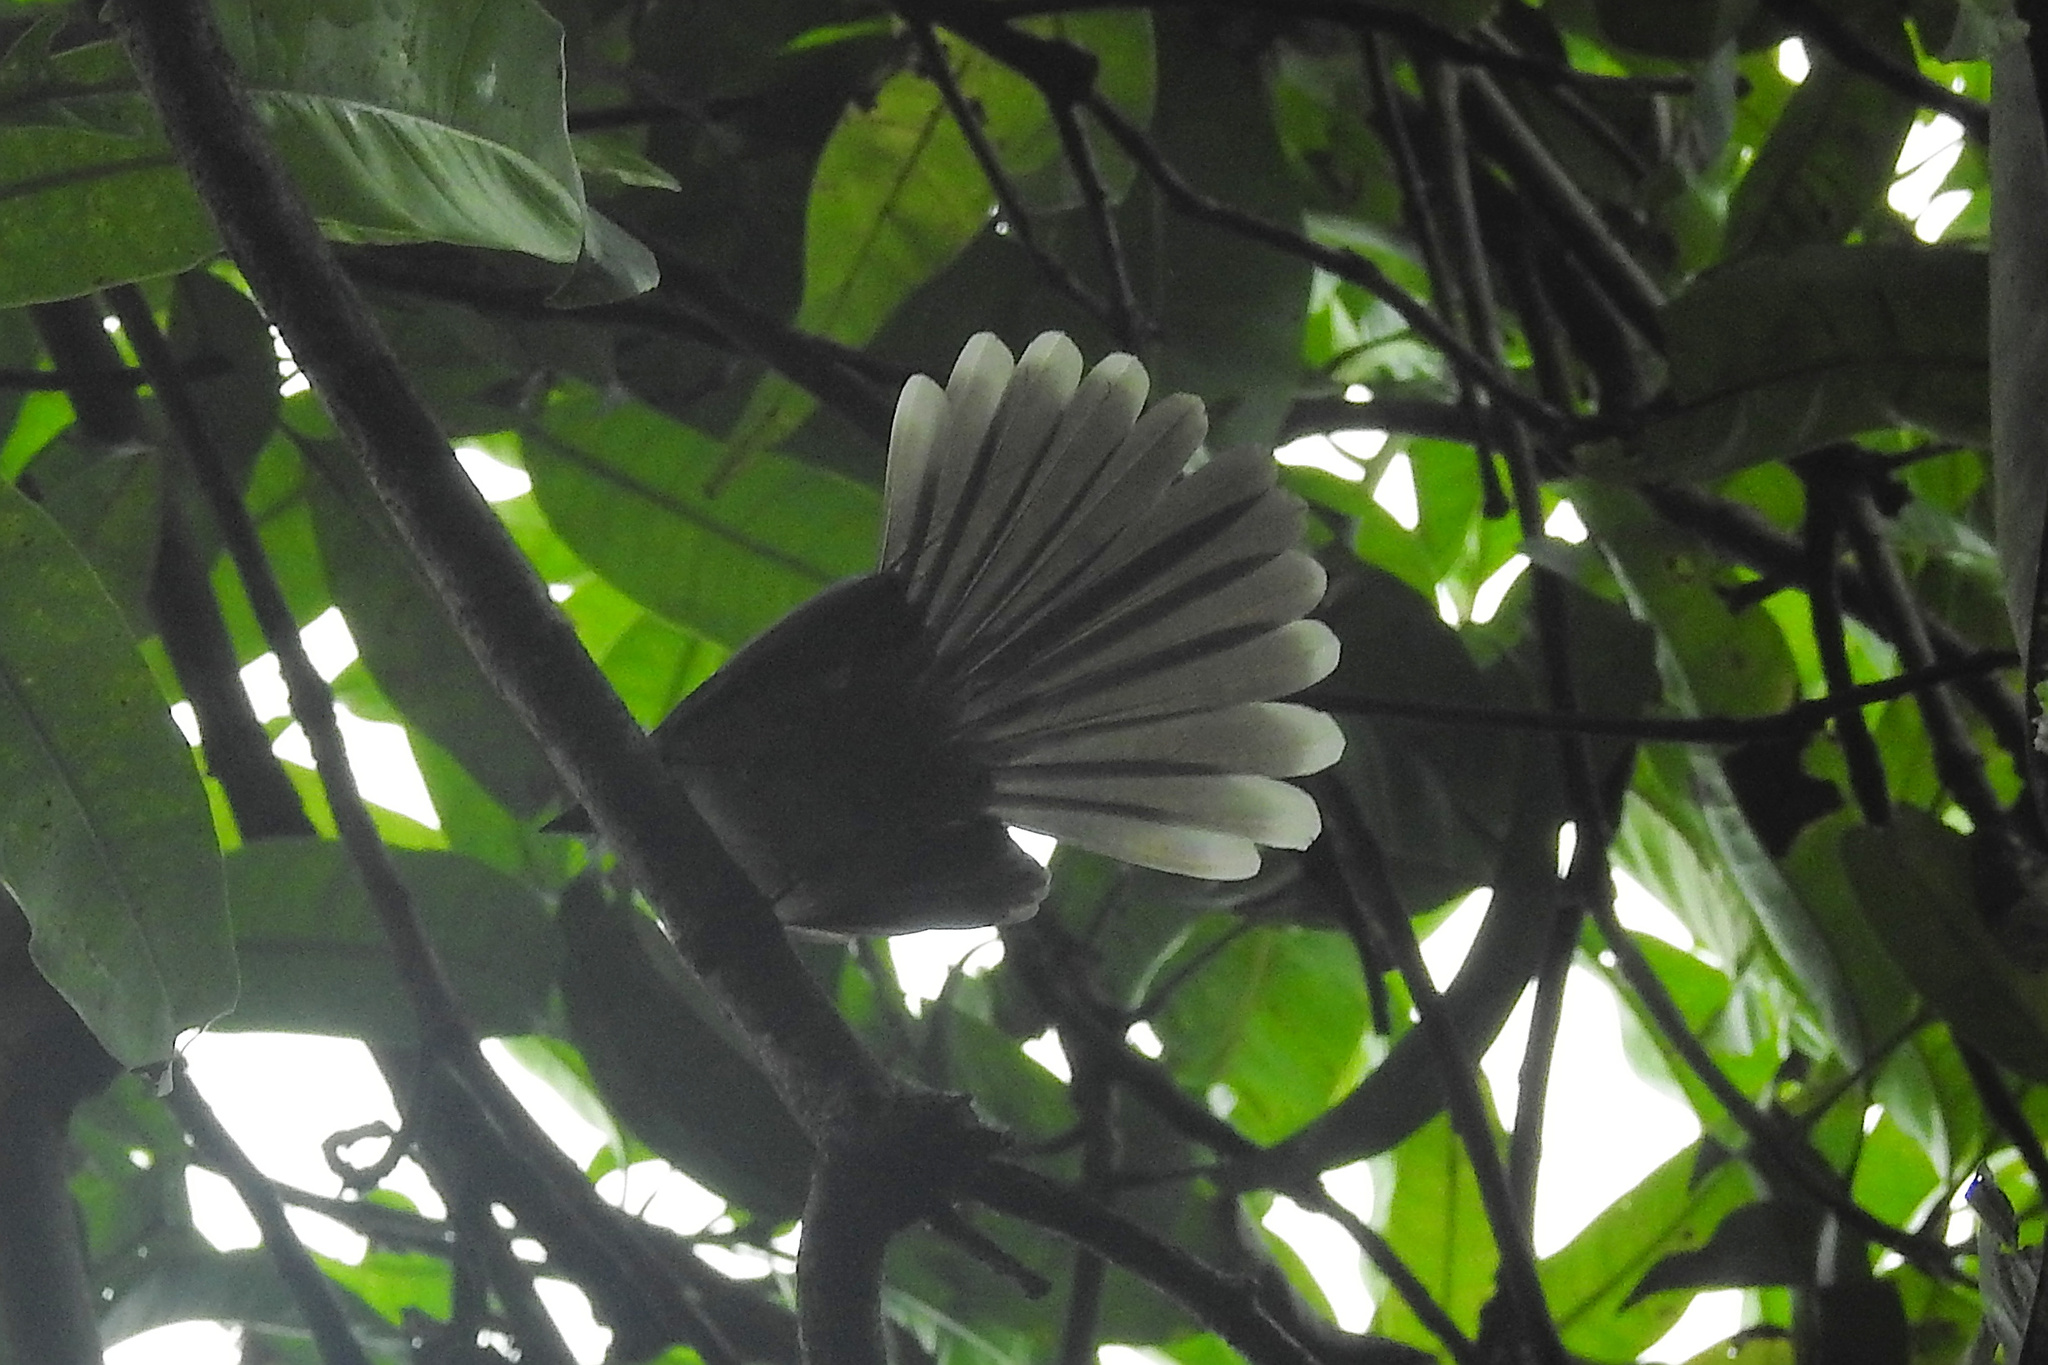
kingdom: Animalia
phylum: Chordata
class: Aves
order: Passeriformes
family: Rhipiduridae
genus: Rhipidura
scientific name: Rhipidura albogularis
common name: White-spotted fantail
